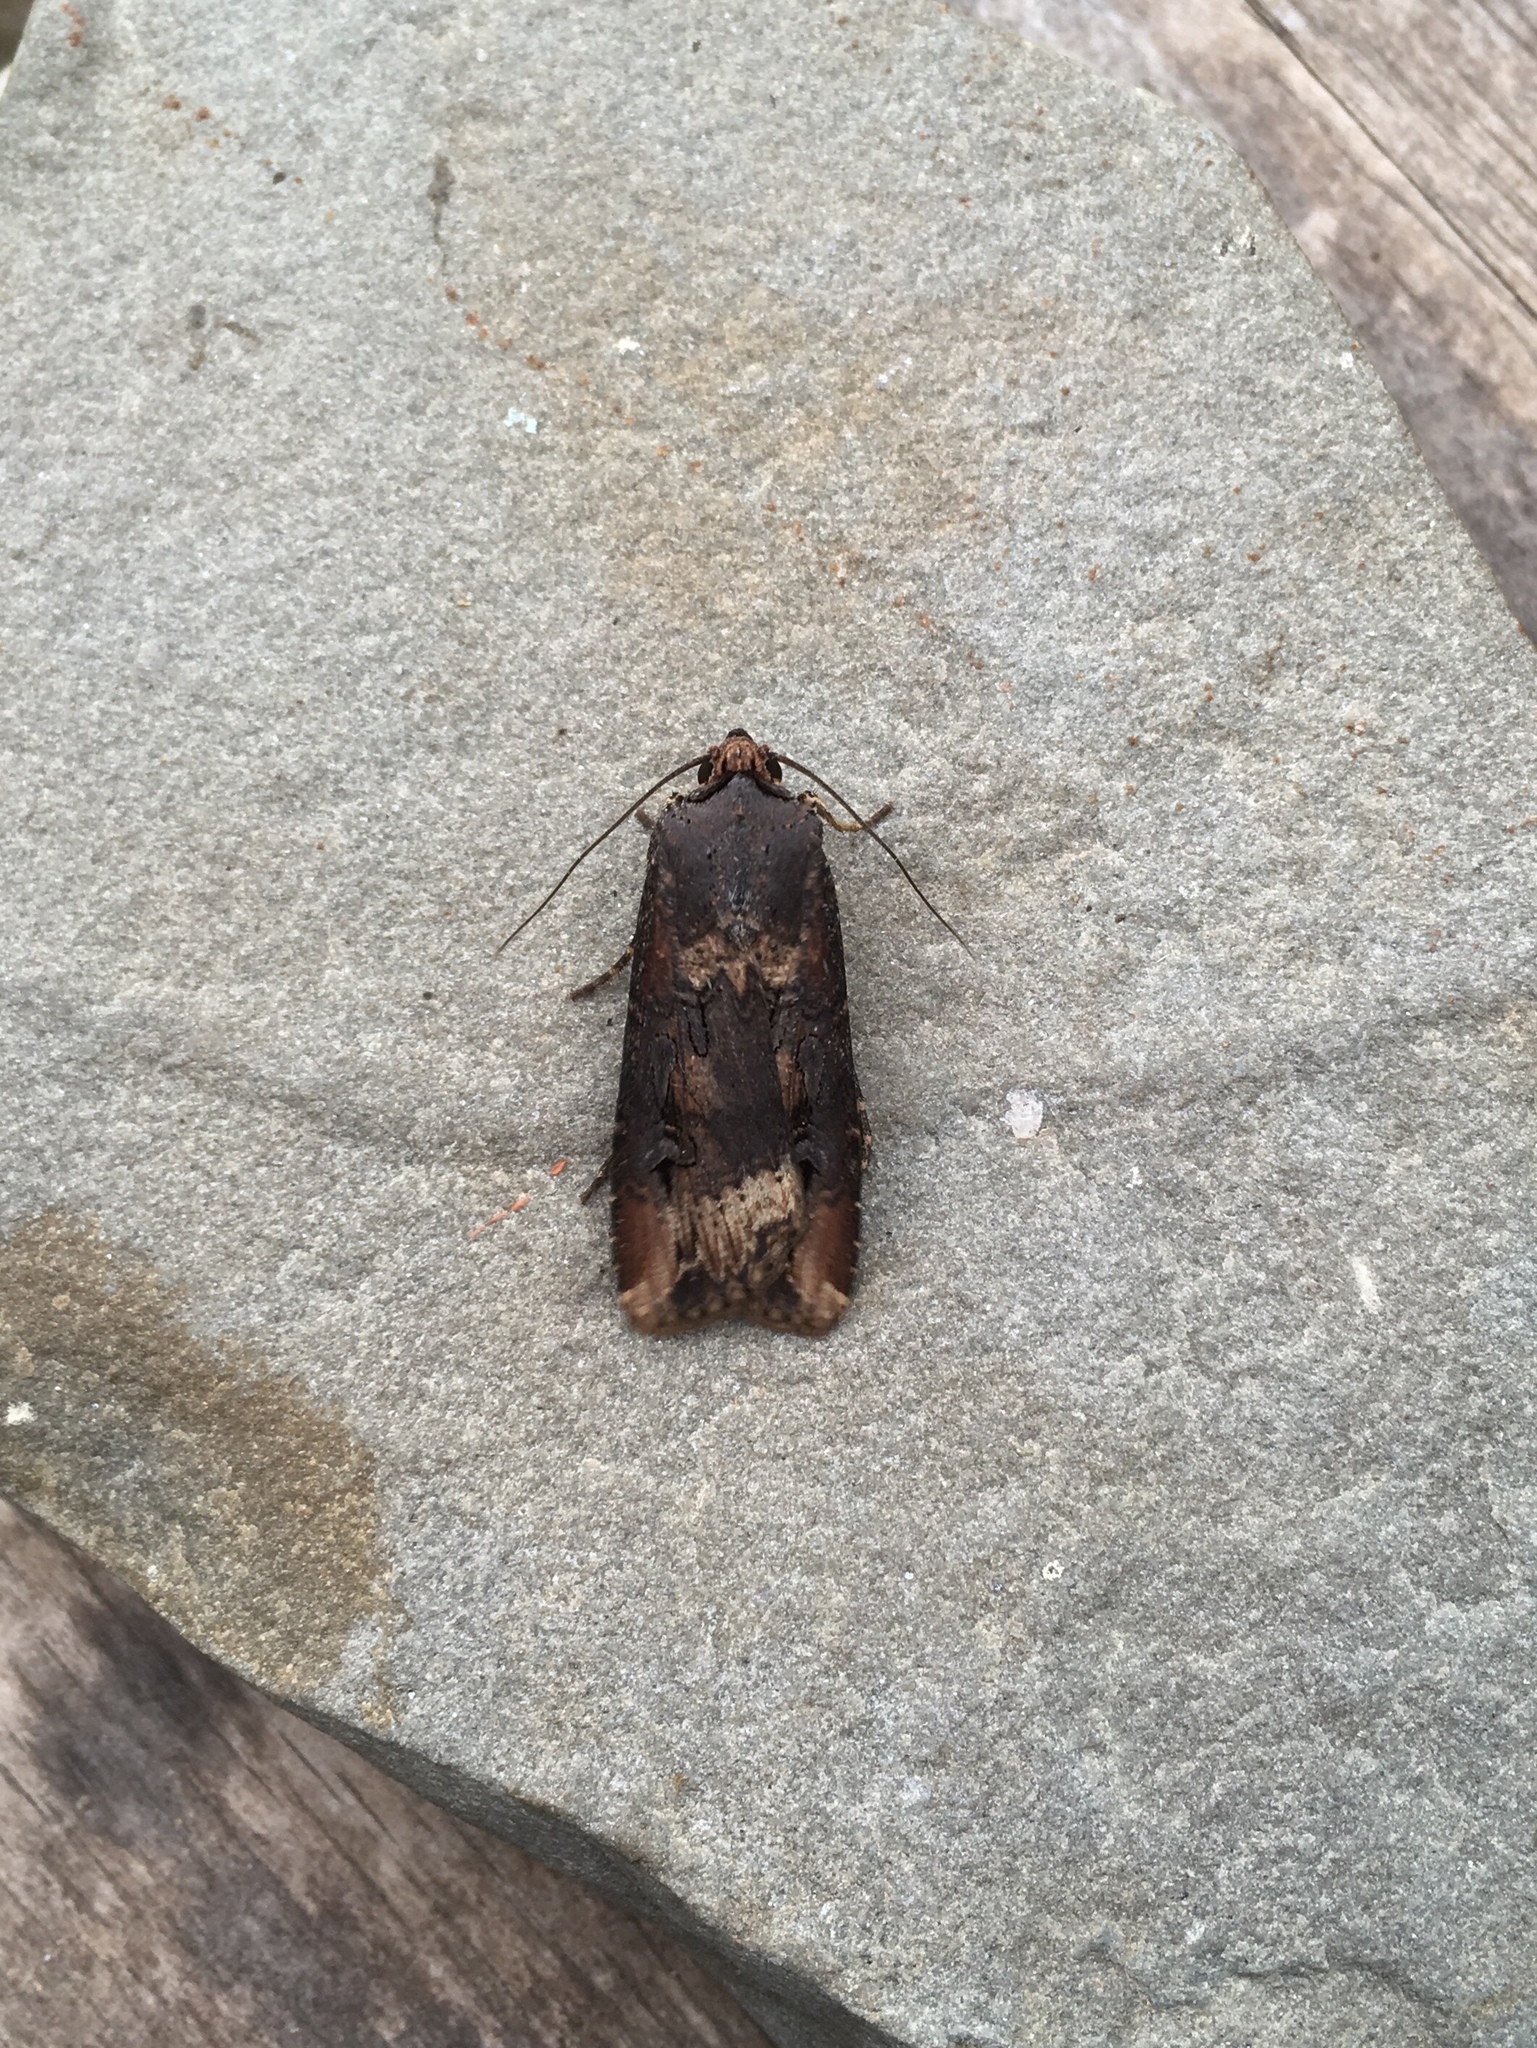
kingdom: Animalia
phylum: Arthropoda
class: Insecta
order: Lepidoptera
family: Noctuidae
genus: Agrotis
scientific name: Agrotis ipsilon
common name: Dark sword-grass
